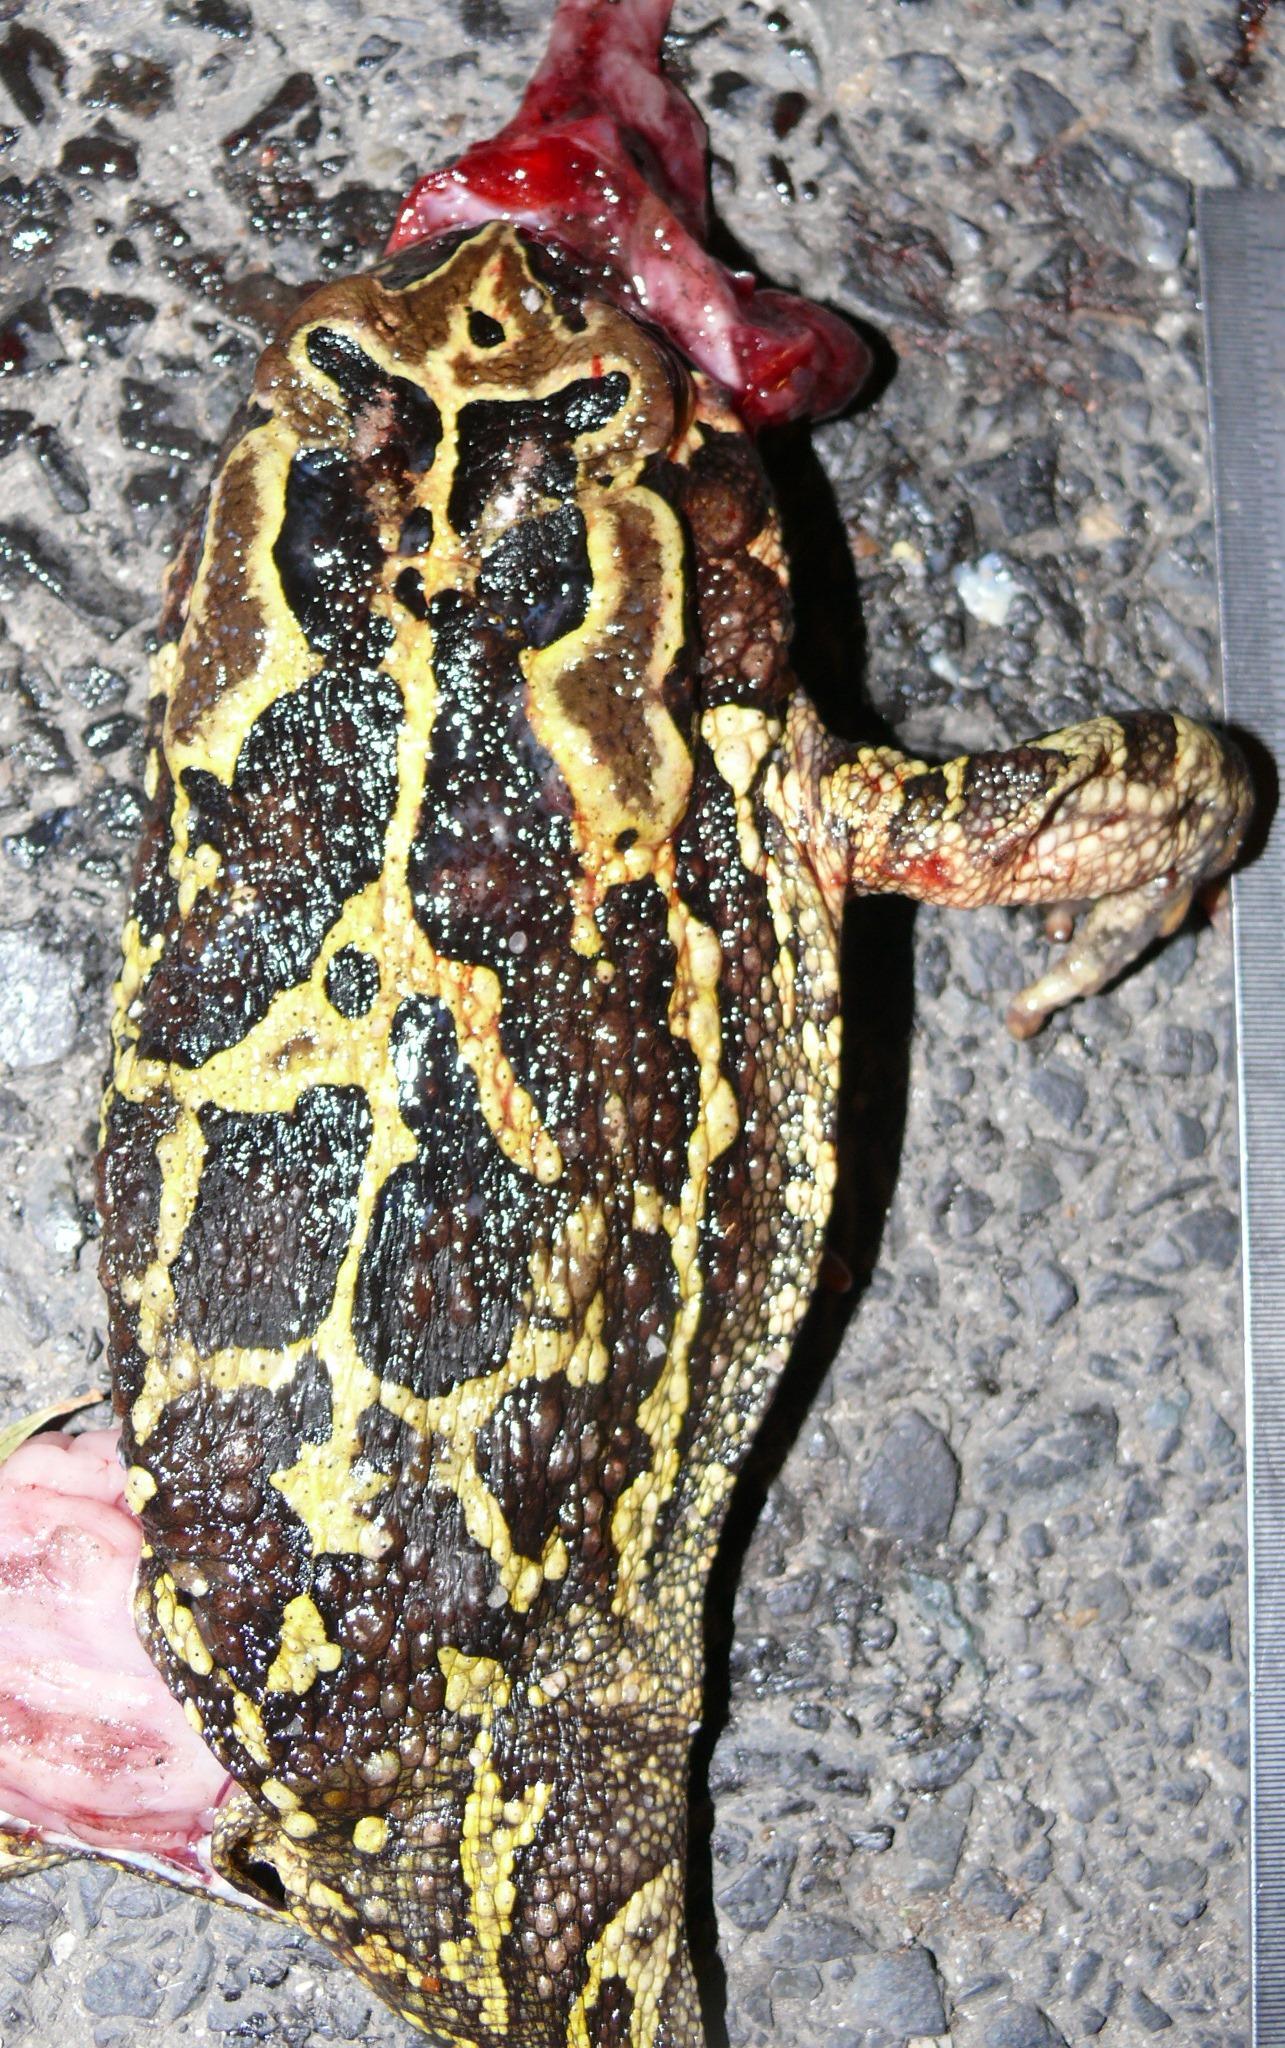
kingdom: Animalia
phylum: Chordata
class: Amphibia
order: Anura
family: Bufonidae
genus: Sclerophrys
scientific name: Sclerophrys pantherina
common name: Panther toad
